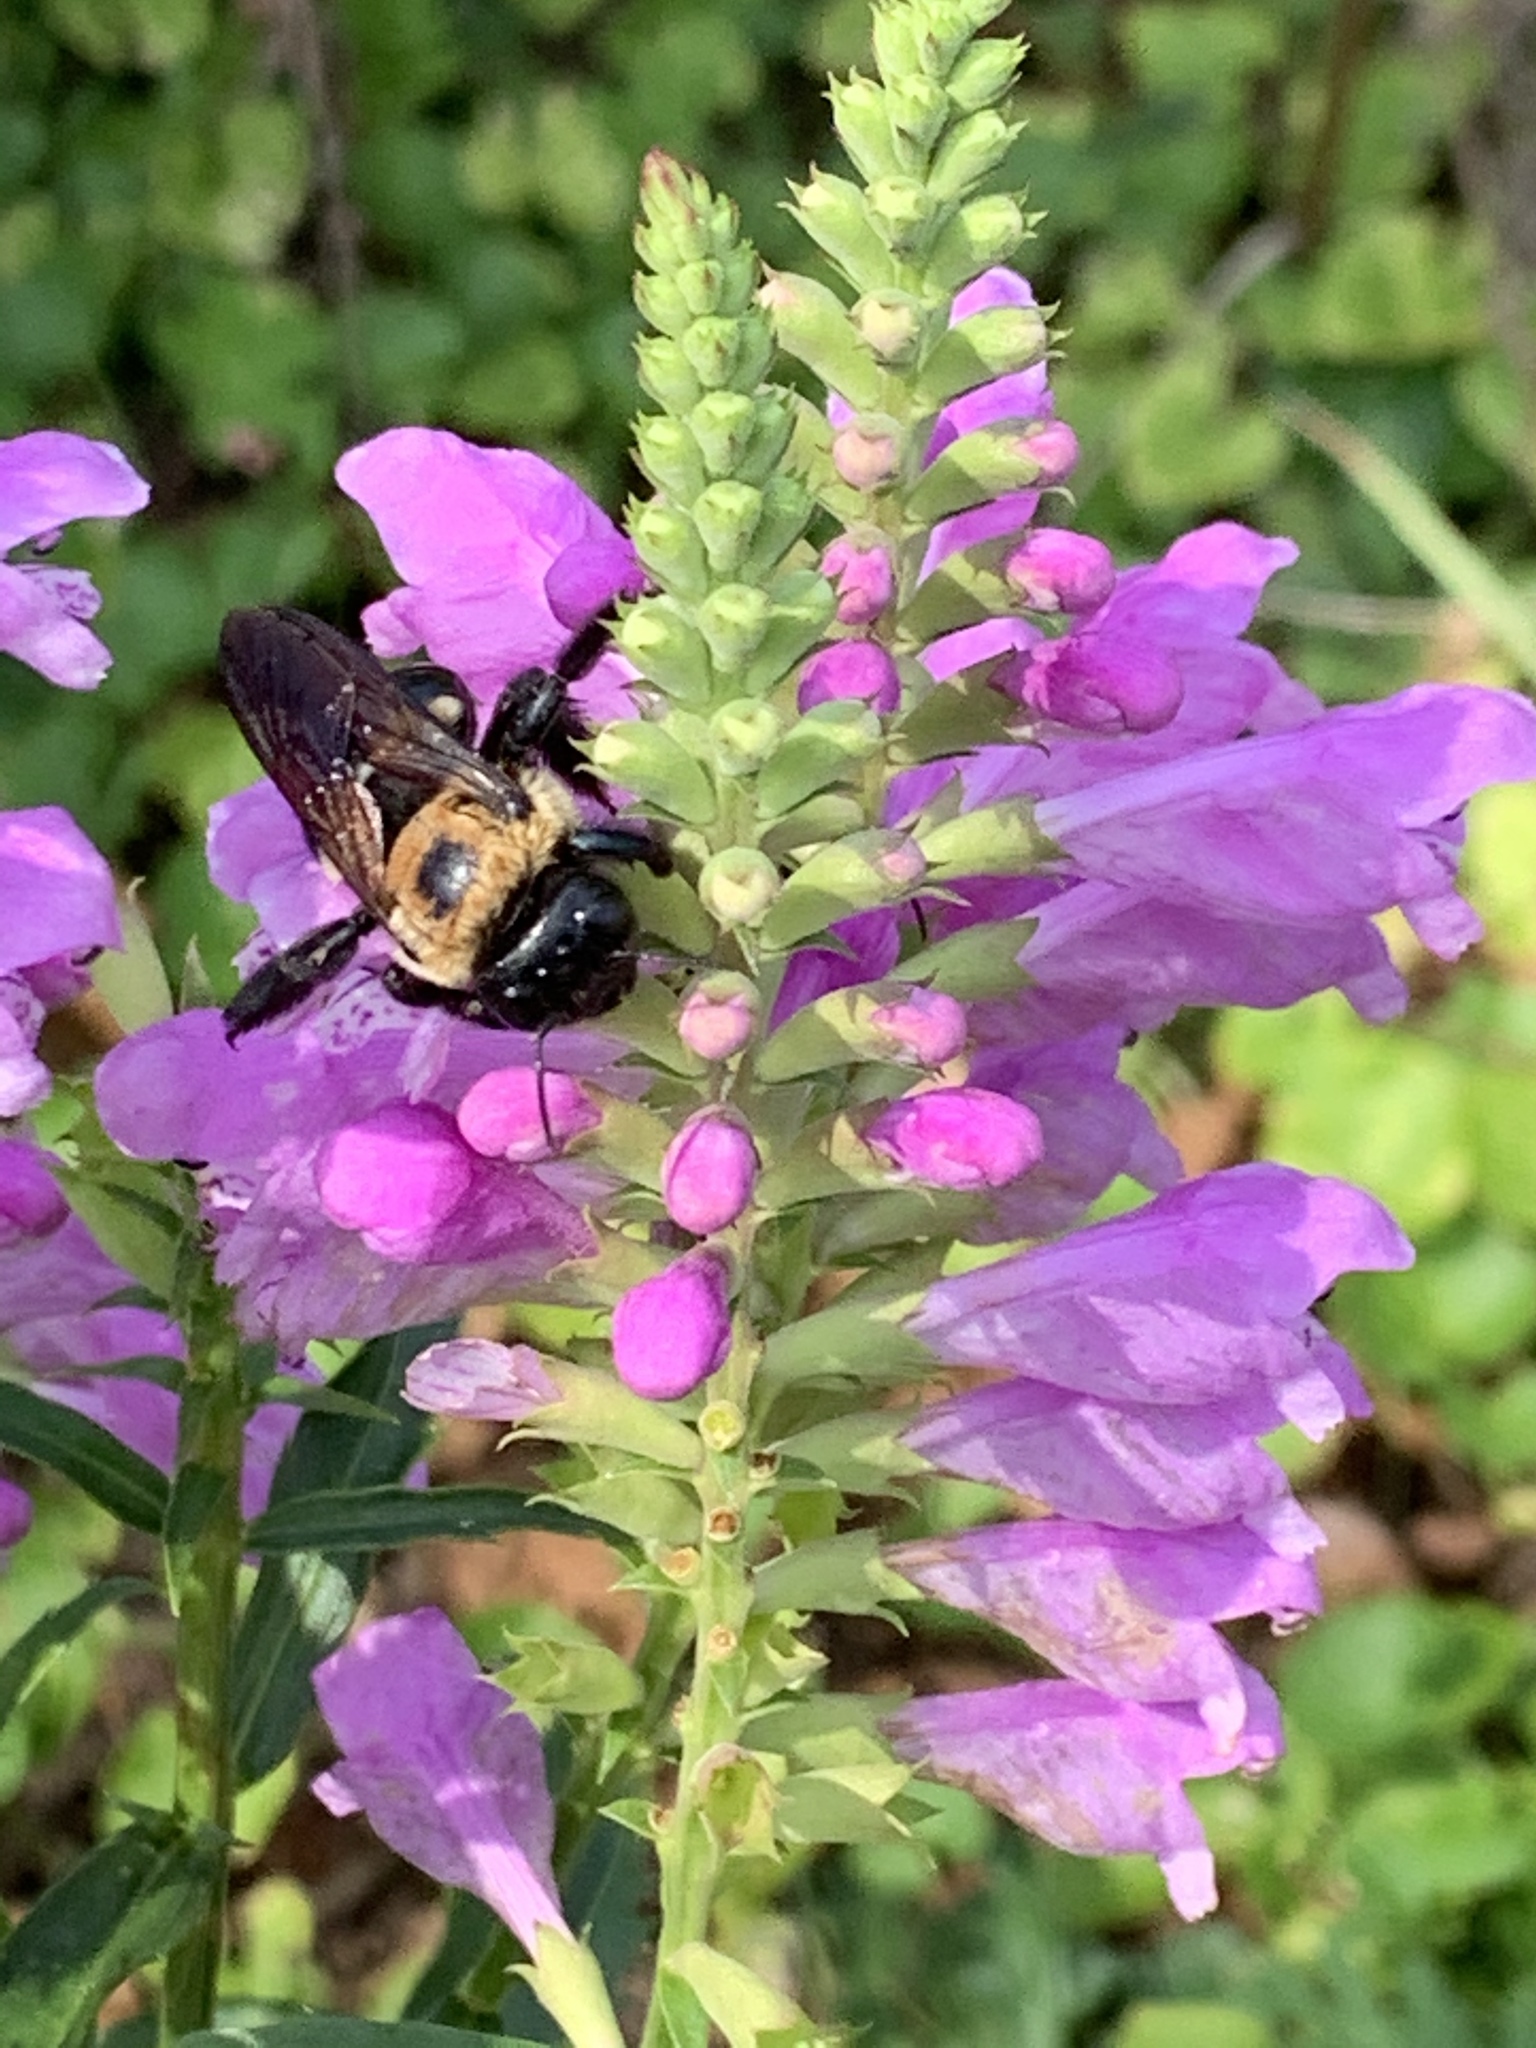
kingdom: Animalia
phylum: Arthropoda
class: Insecta
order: Hymenoptera
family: Apidae
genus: Xylocopa
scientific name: Xylocopa virginica
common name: Carpenter bee
